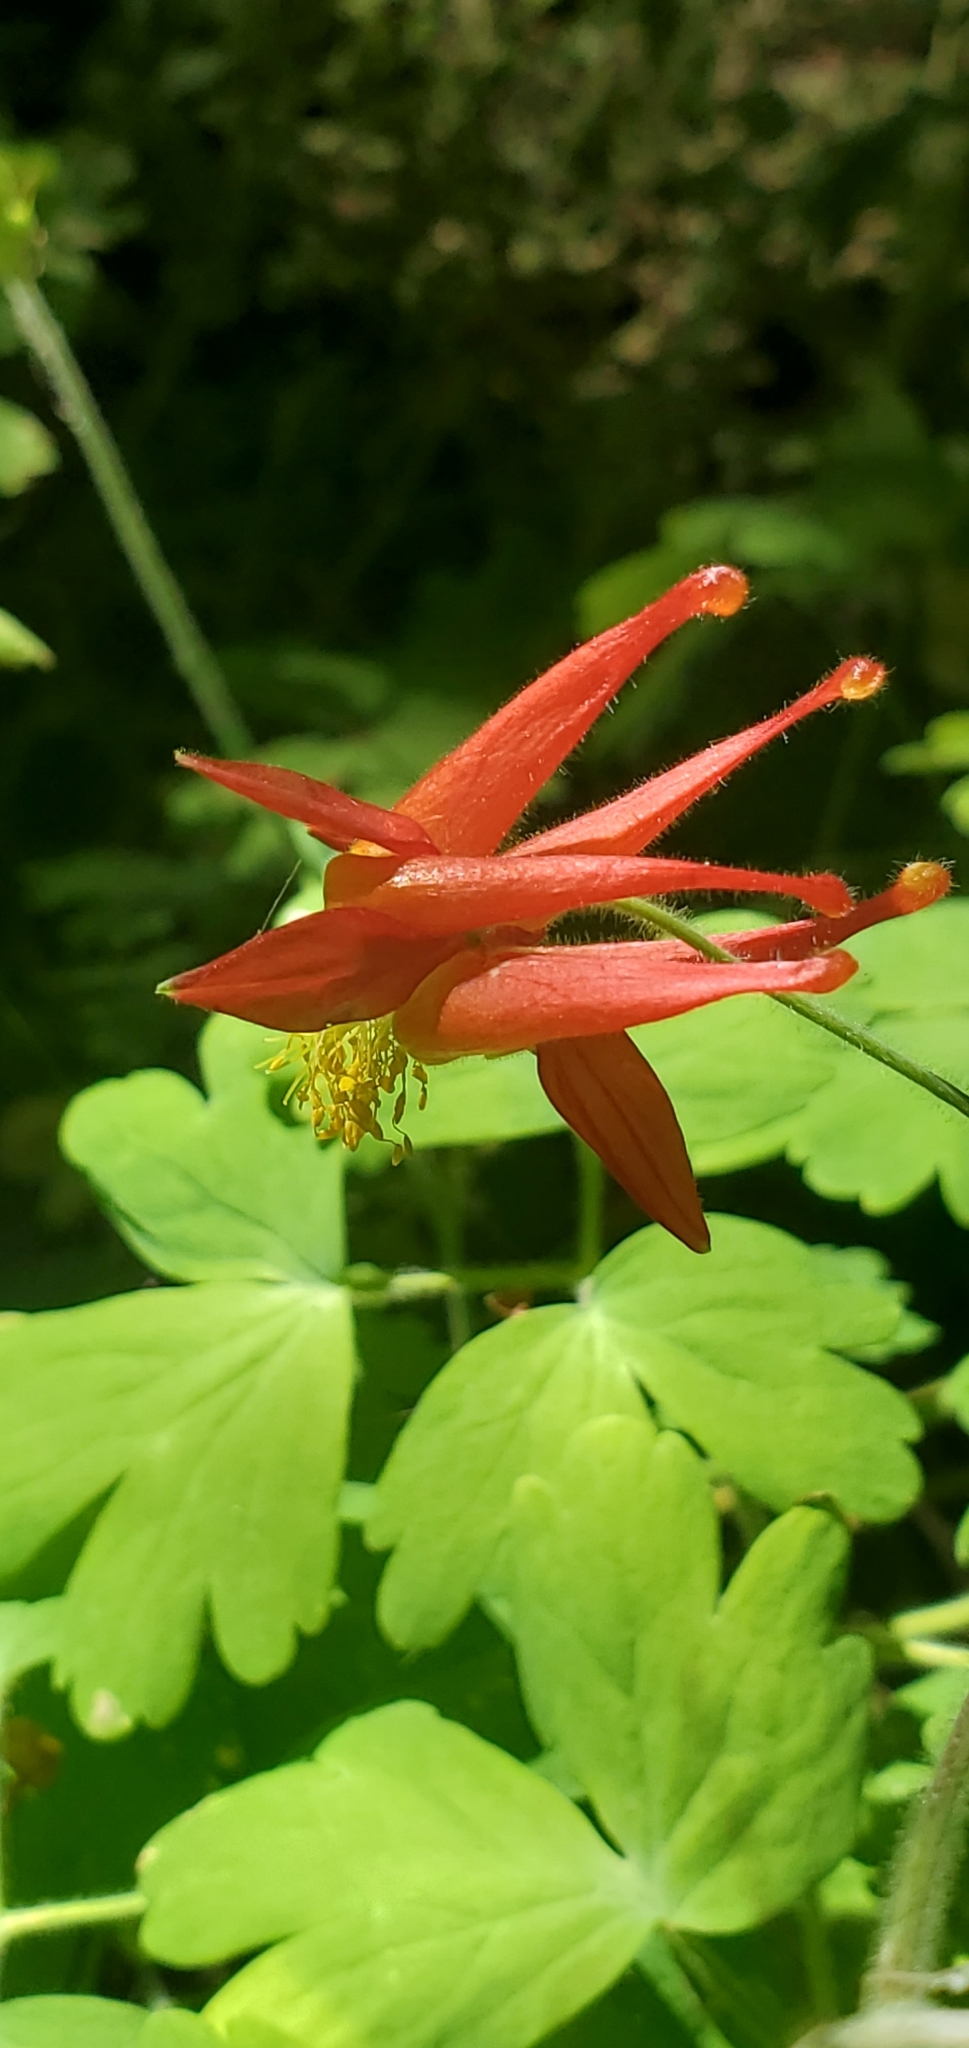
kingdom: Plantae
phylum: Tracheophyta
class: Magnoliopsida
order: Ranunculales
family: Ranunculaceae
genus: Aquilegia
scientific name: Aquilegia formosa
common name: Sitka columbine
